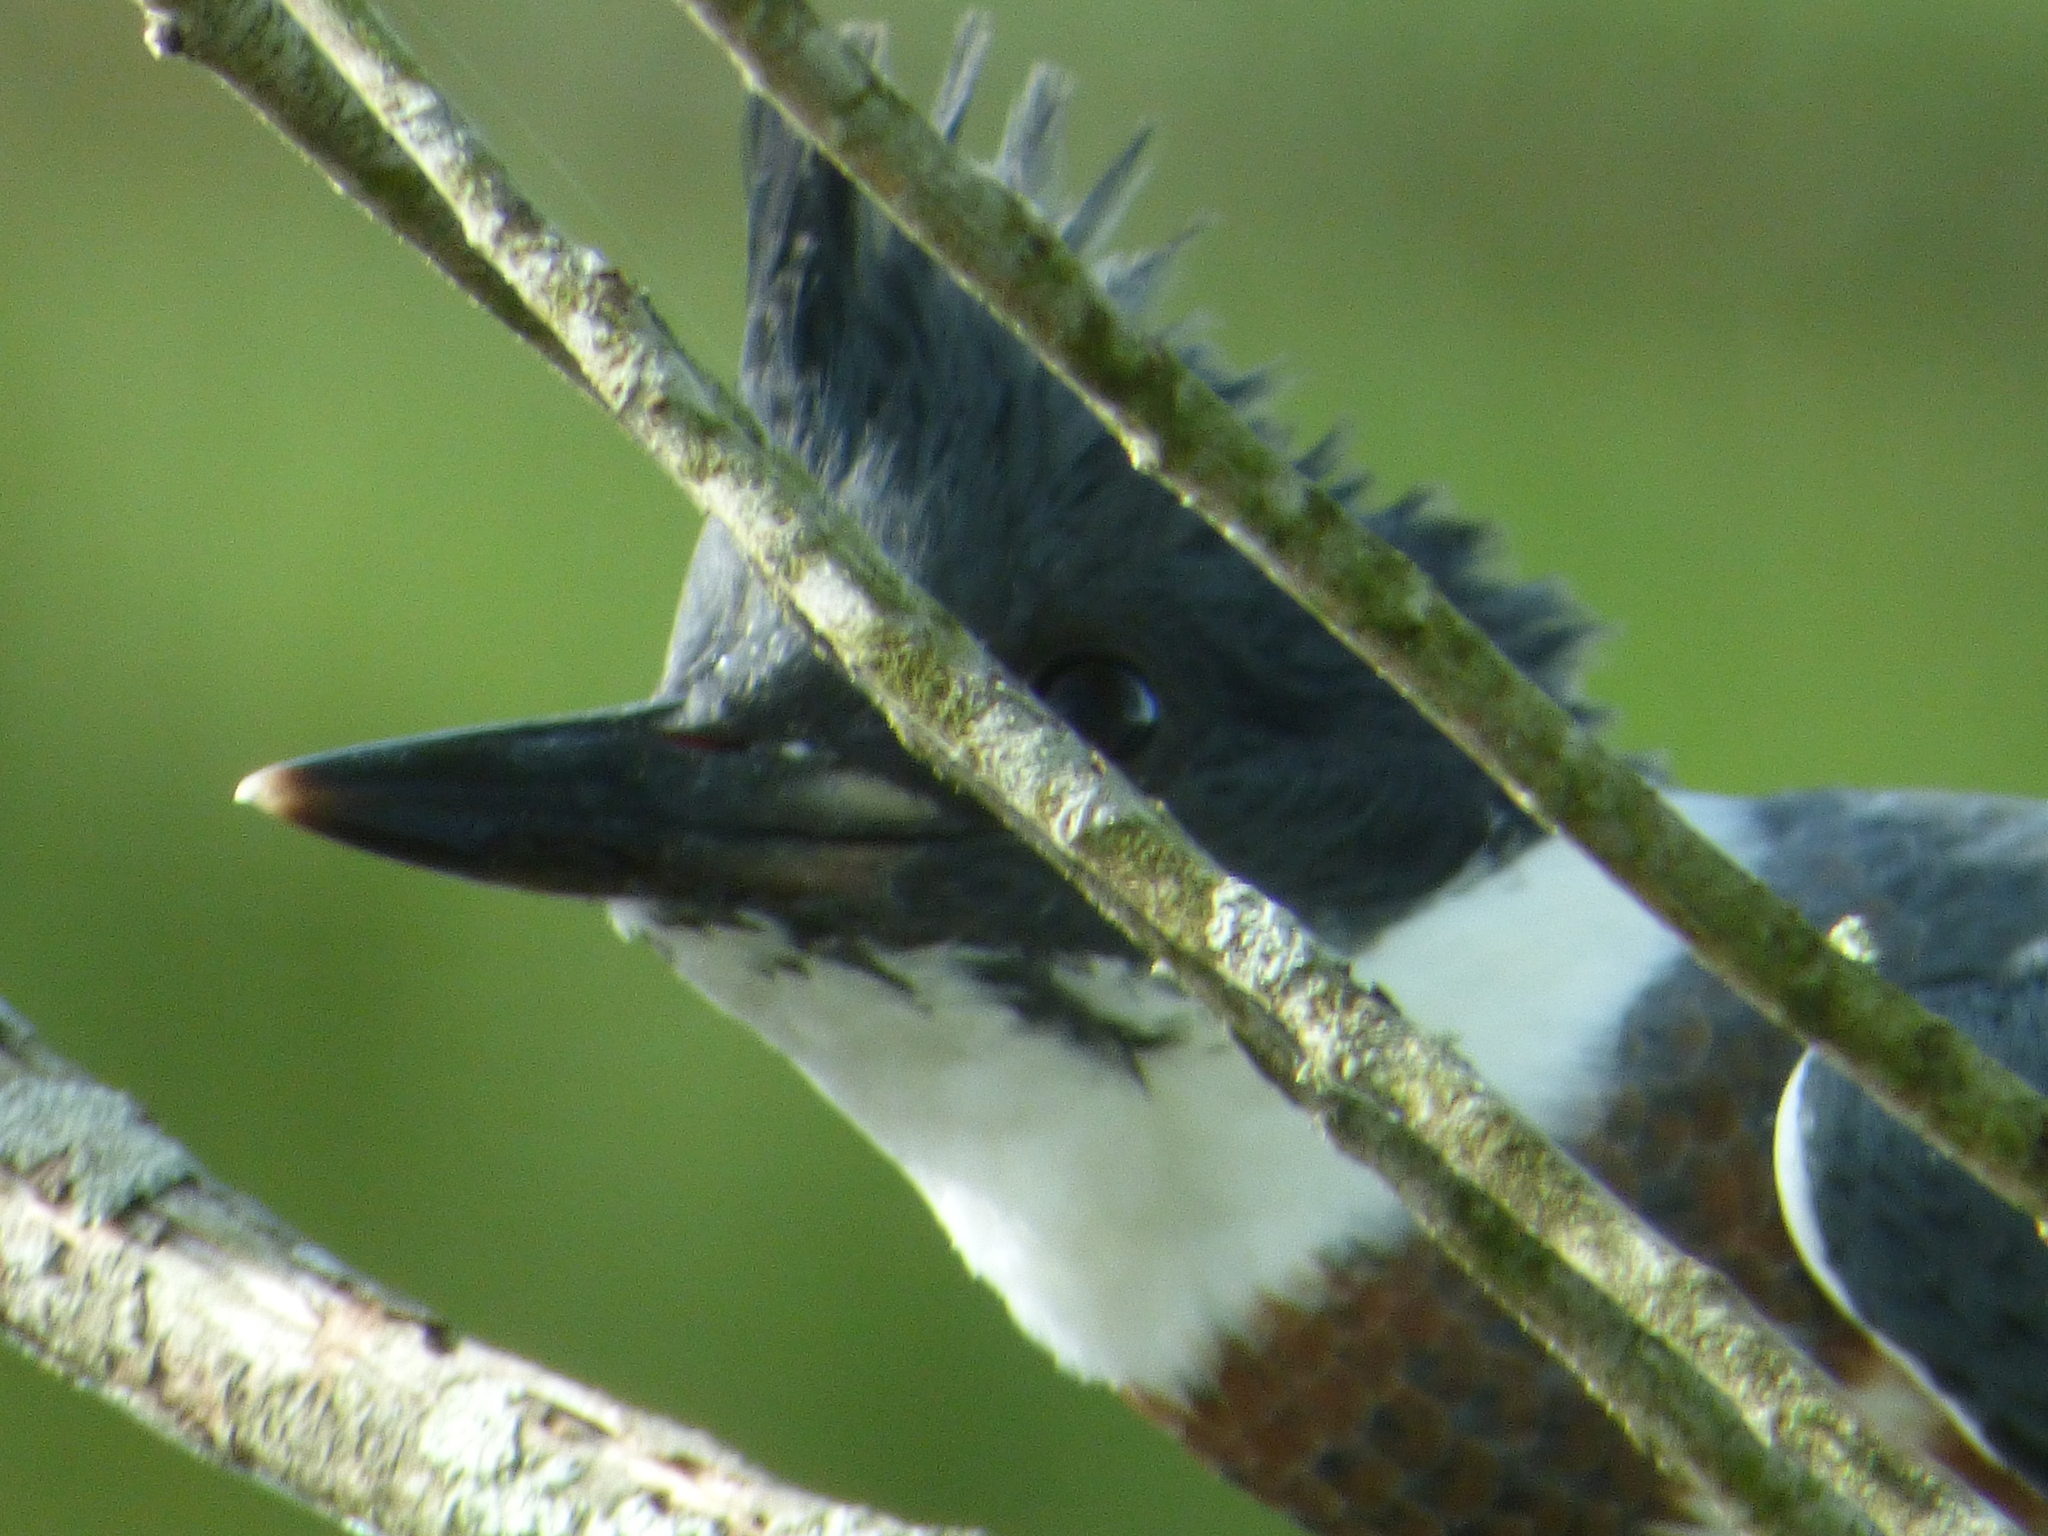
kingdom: Animalia
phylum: Chordata
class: Aves
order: Coraciiformes
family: Alcedinidae
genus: Megaceryle
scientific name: Megaceryle alcyon
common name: Belted kingfisher
